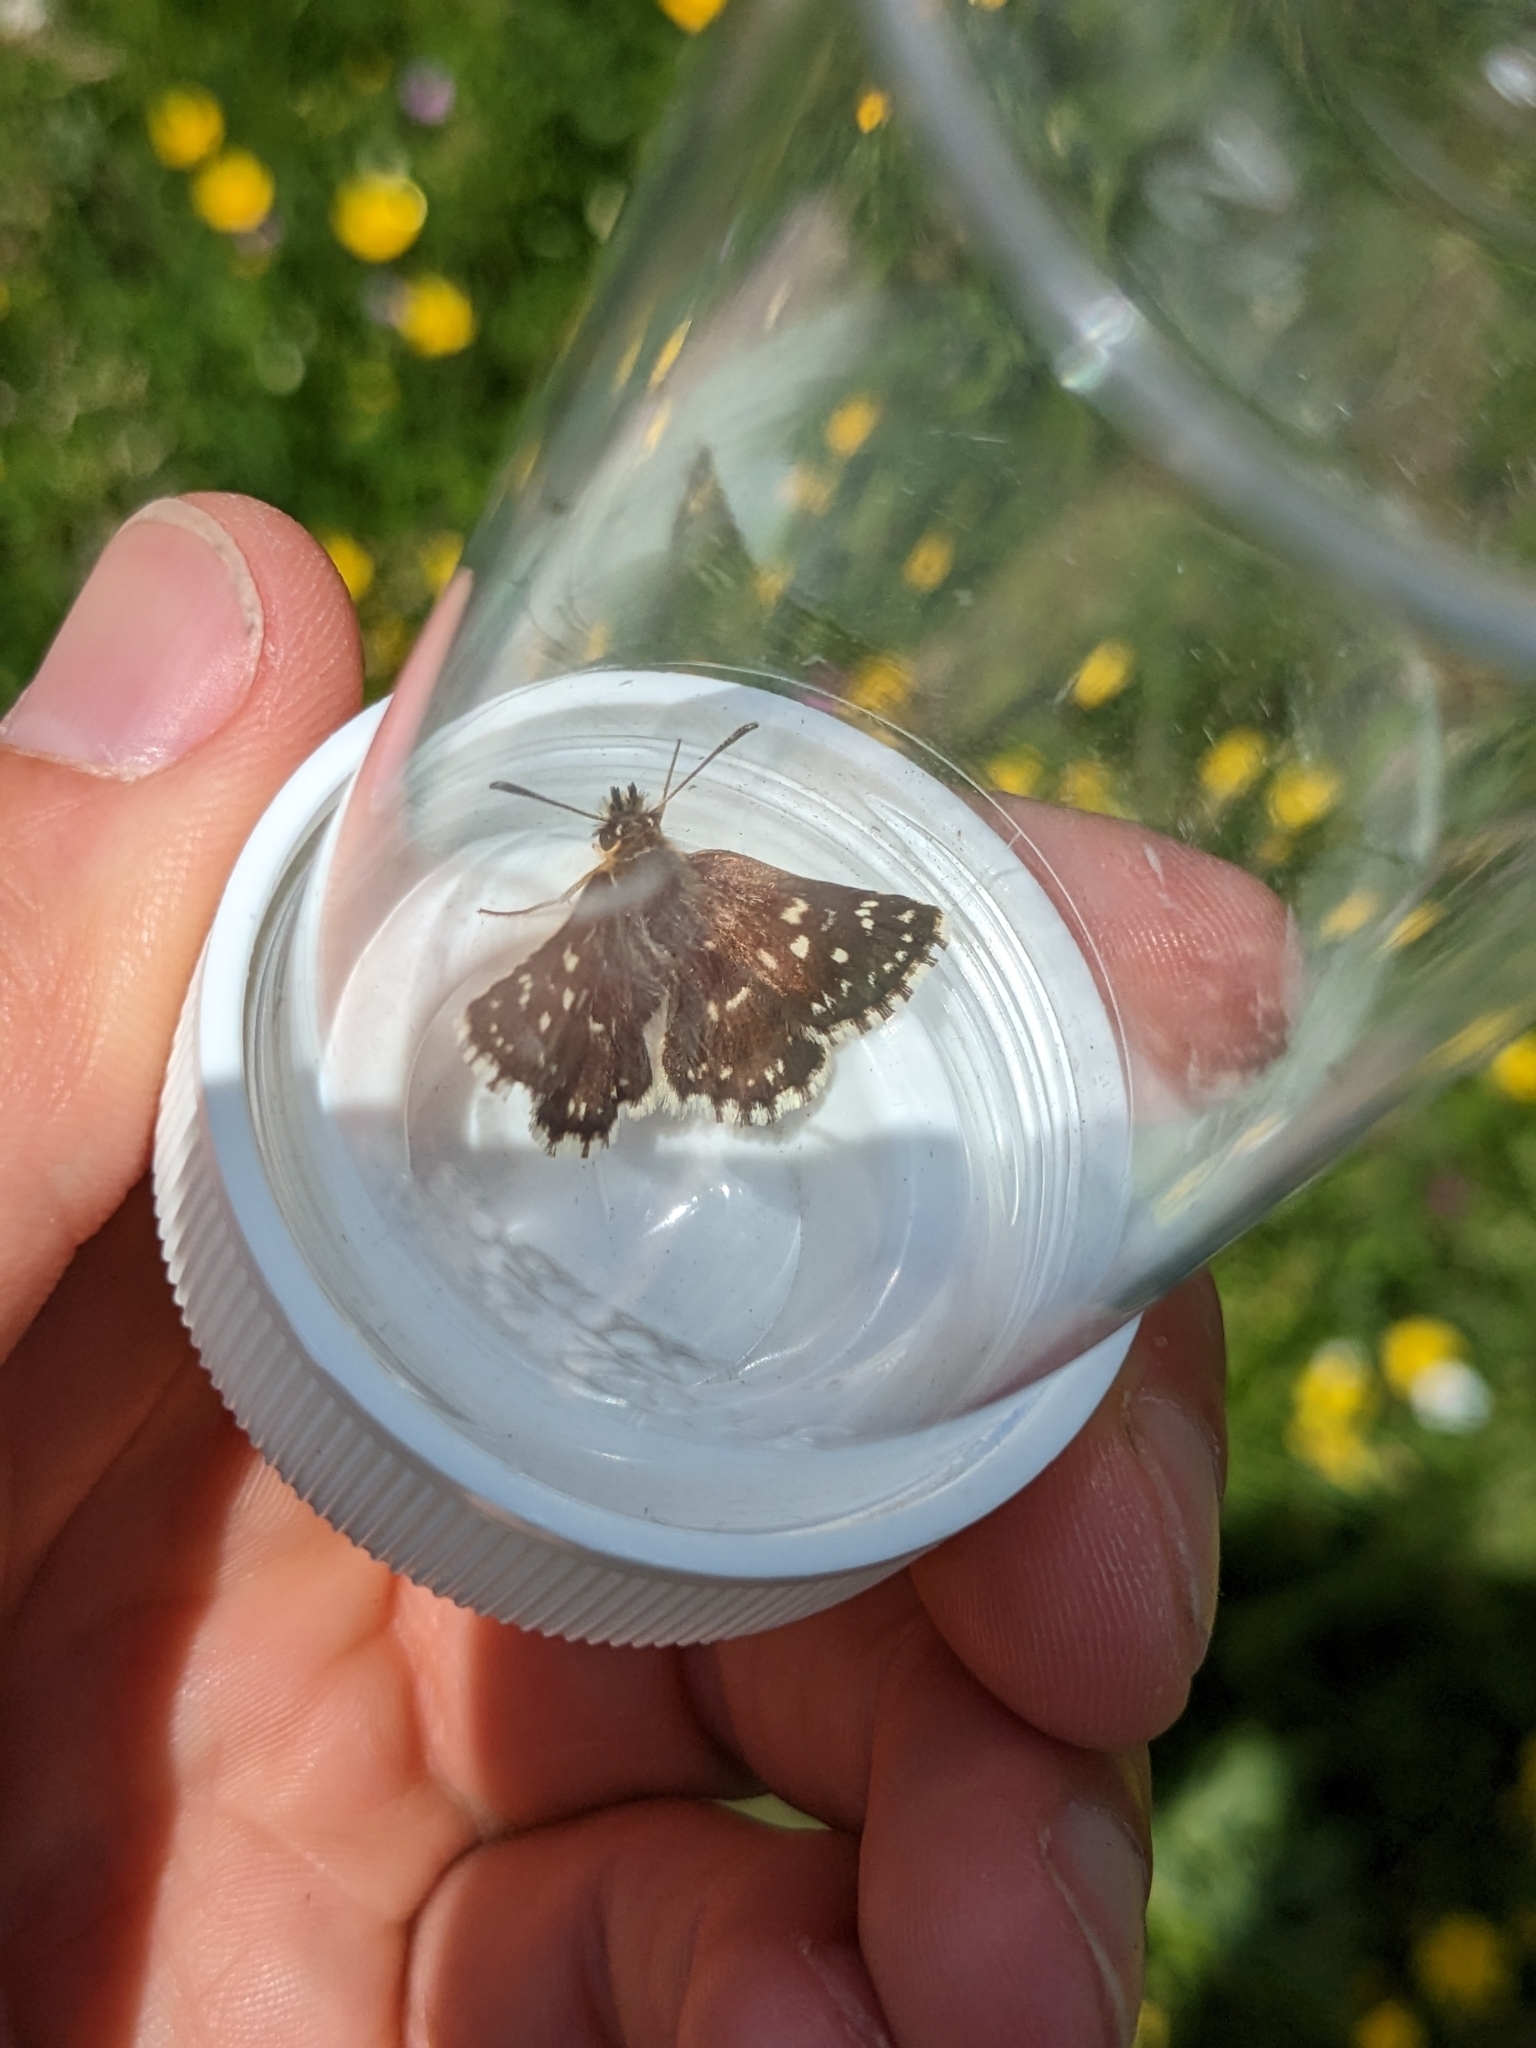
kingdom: Animalia
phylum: Arthropoda
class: Insecta
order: Lepidoptera
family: Hesperiidae
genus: Spialia
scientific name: Spialia sertorius
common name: Red underwing skipper
